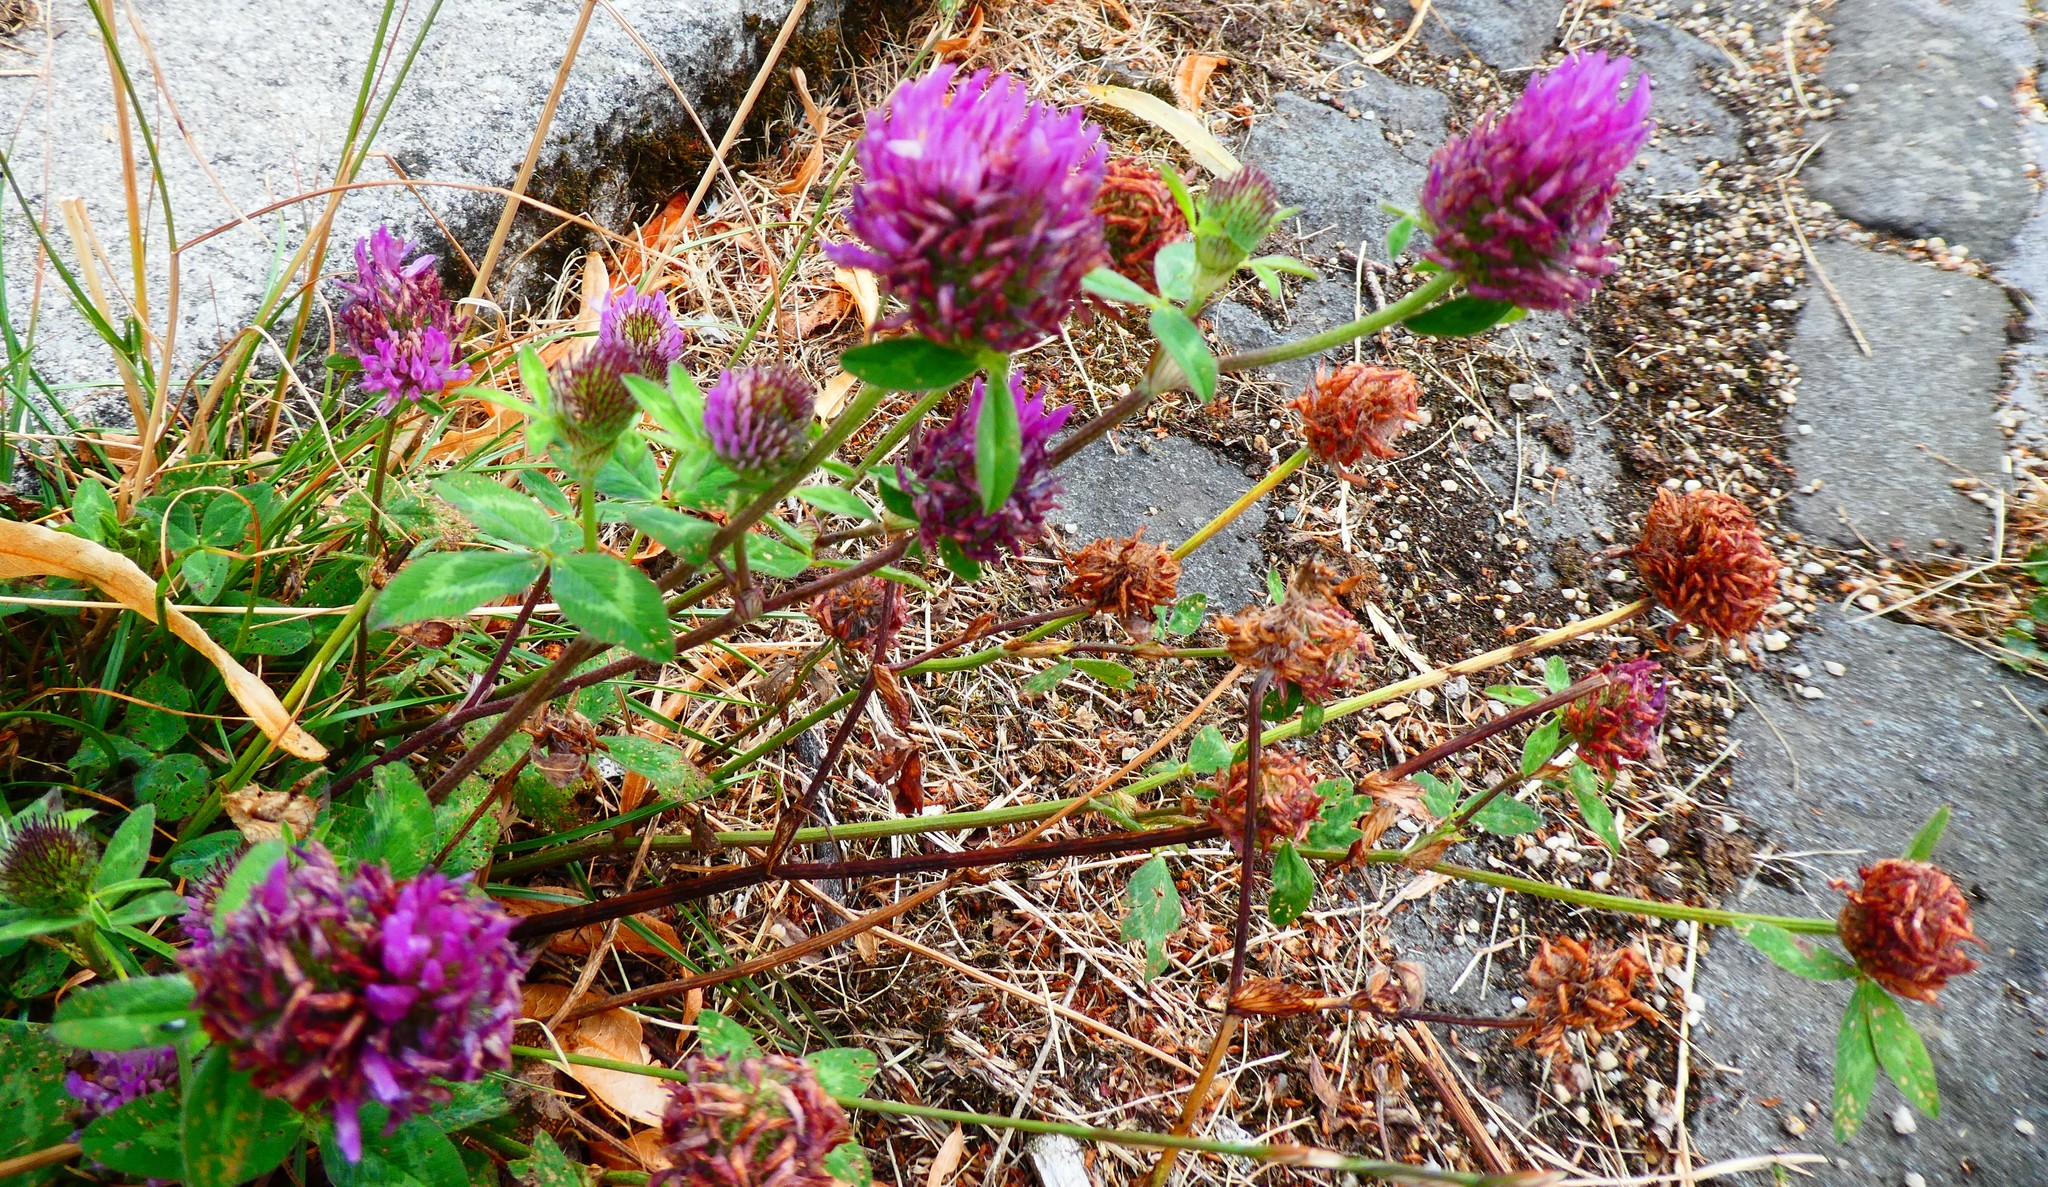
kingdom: Plantae
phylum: Tracheophyta
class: Magnoliopsida
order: Fabales
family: Fabaceae
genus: Trifolium
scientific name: Trifolium pratense
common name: Red clover
